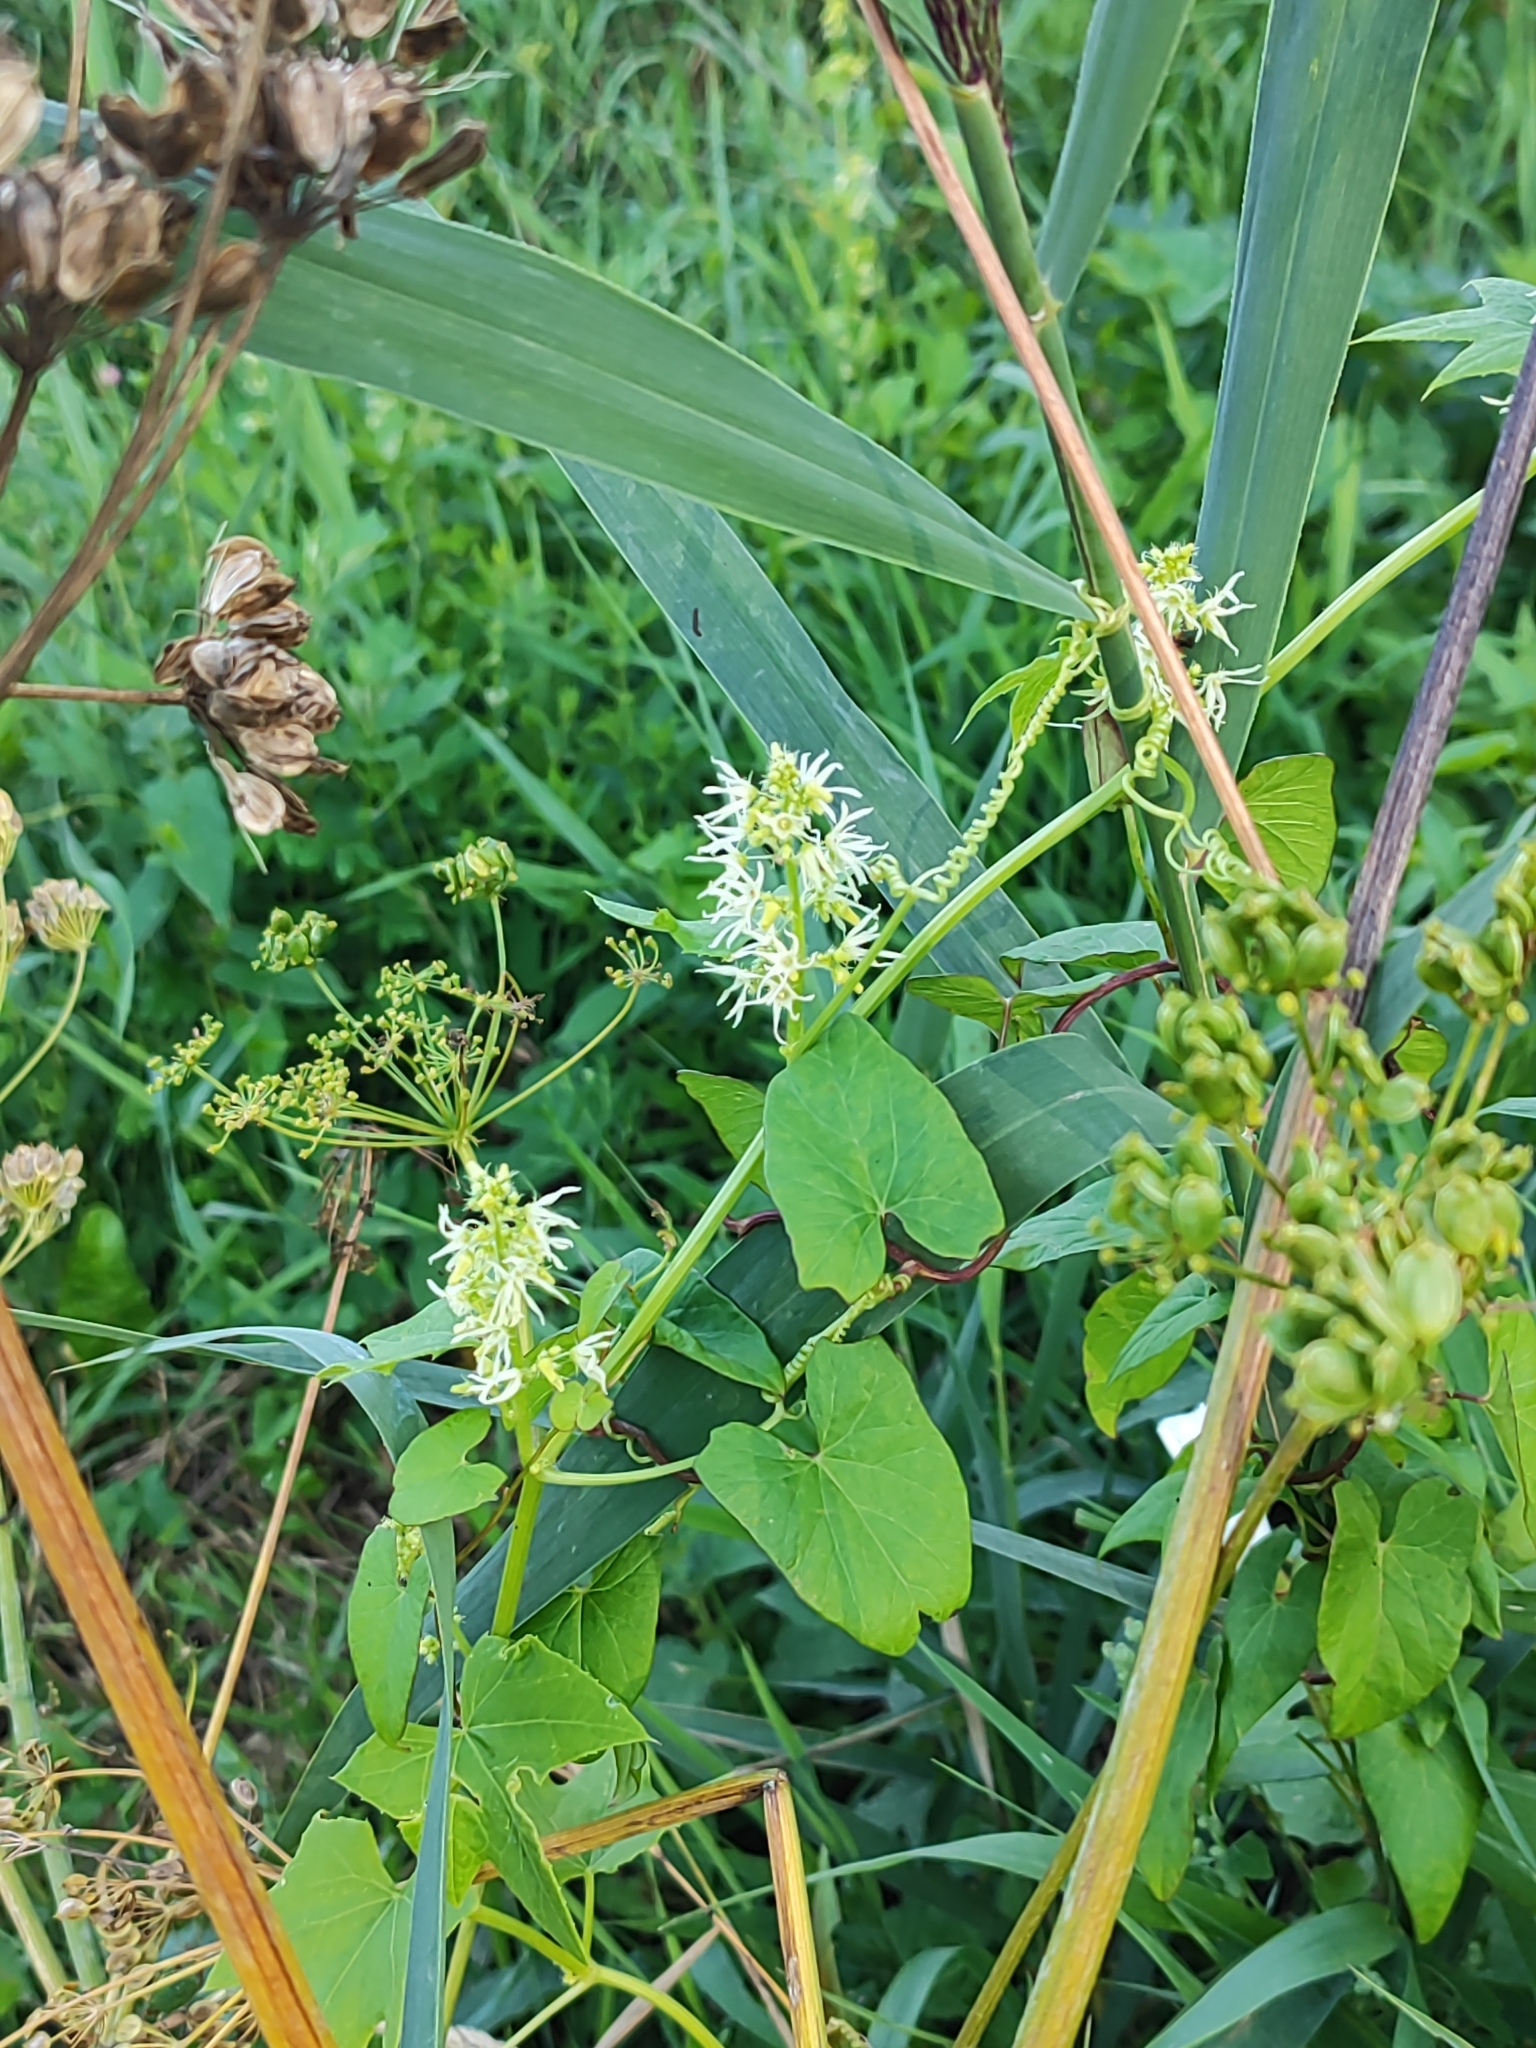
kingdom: Plantae
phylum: Tracheophyta
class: Magnoliopsida
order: Cucurbitales
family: Cucurbitaceae
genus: Echinocystis
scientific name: Echinocystis lobata
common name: Wild cucumber
